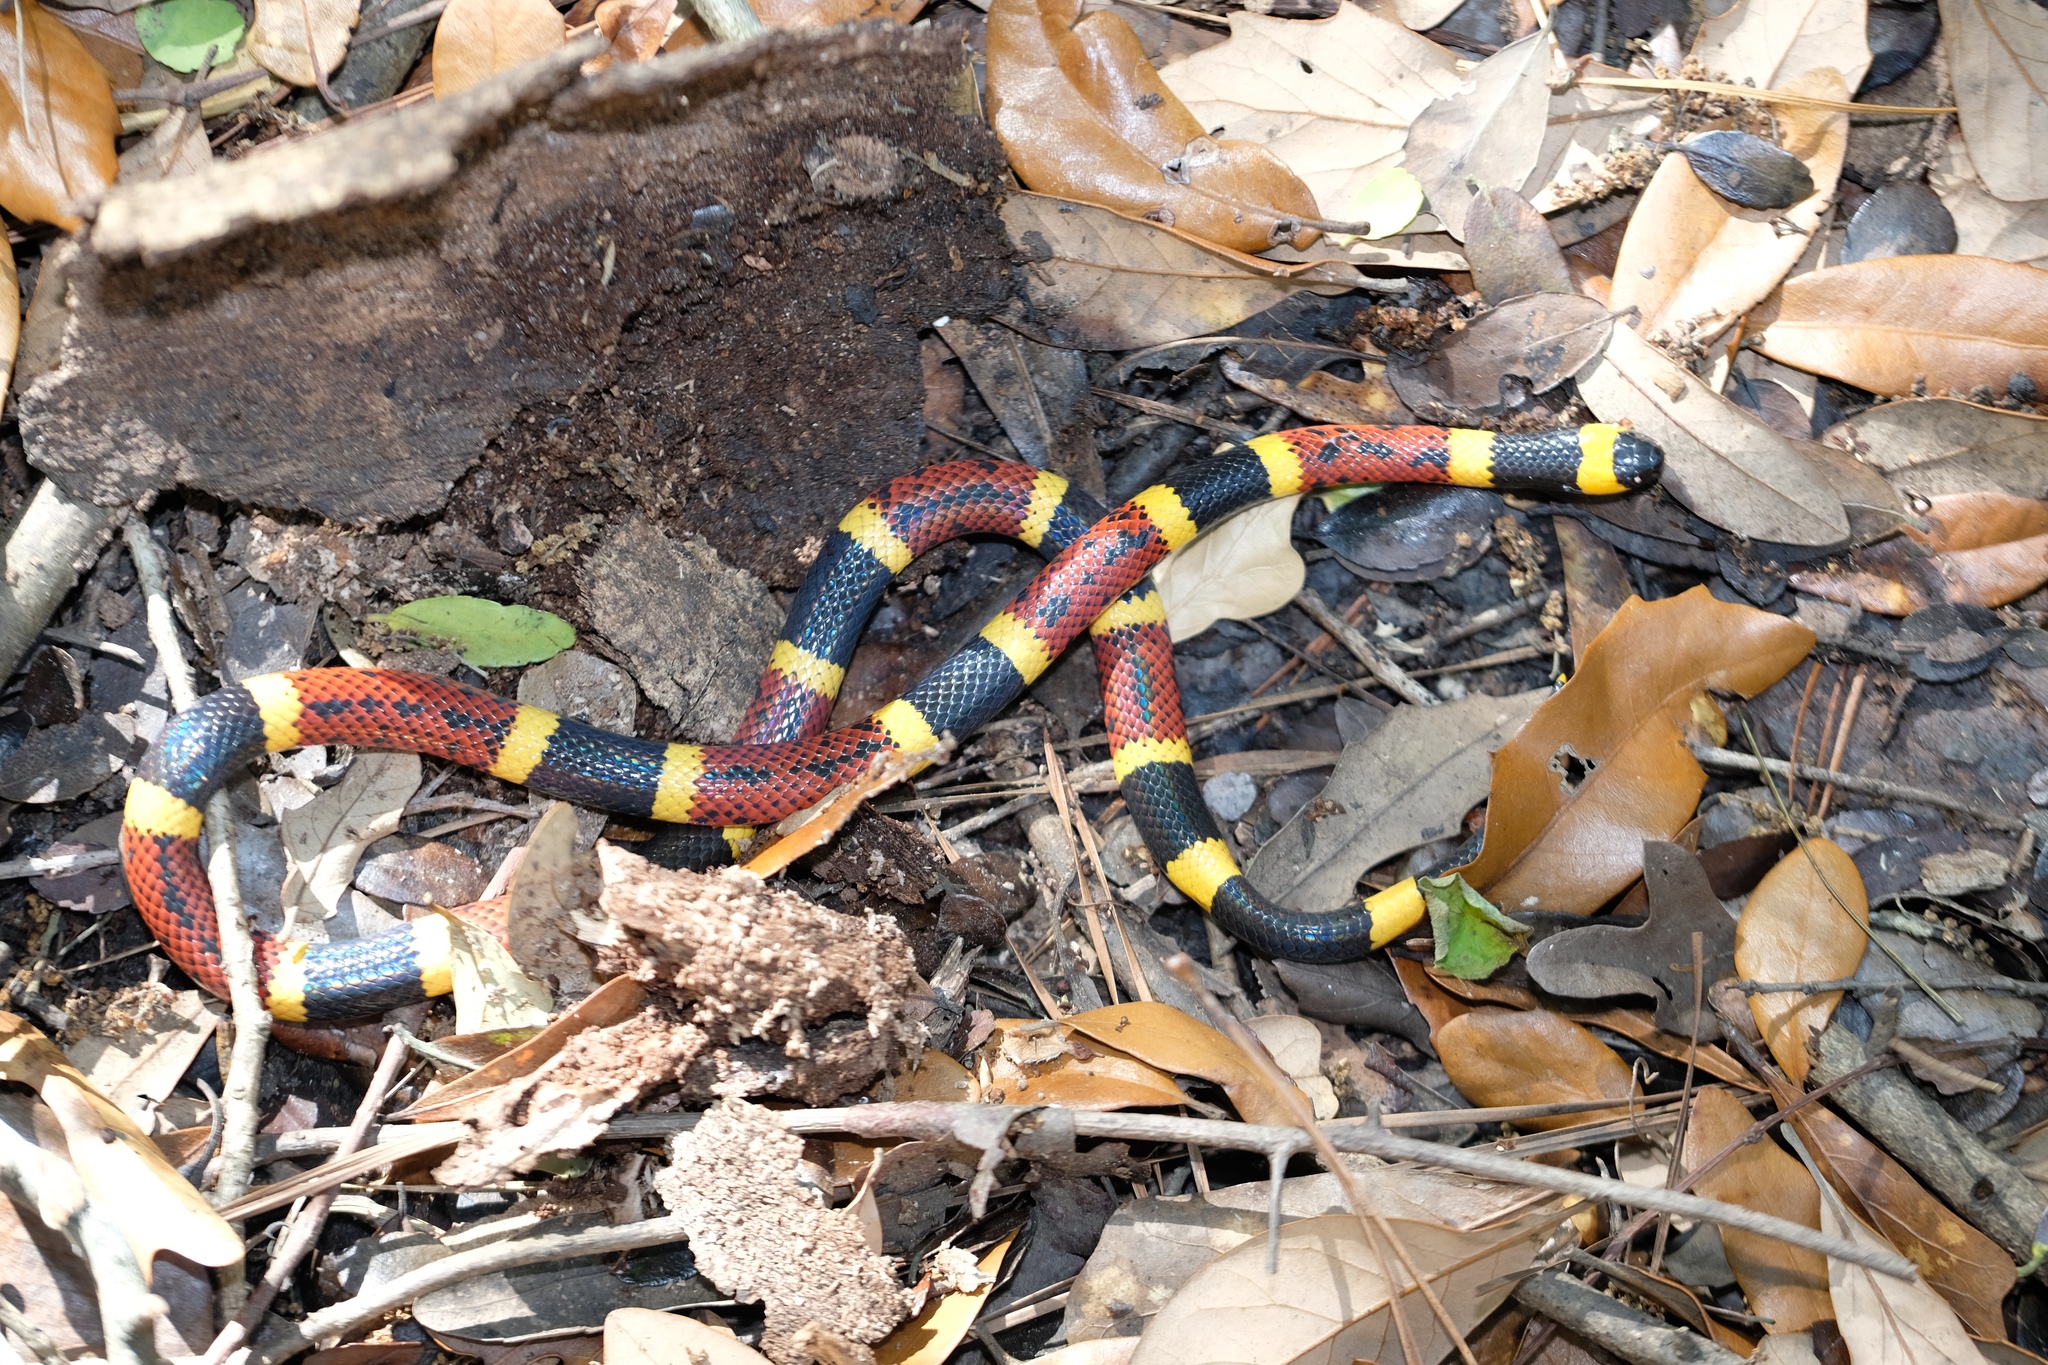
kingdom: Animalia
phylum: Chordata
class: Squamata
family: Elapidae
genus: Micrurus
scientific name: Micrurus tener
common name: Texas coral snake
